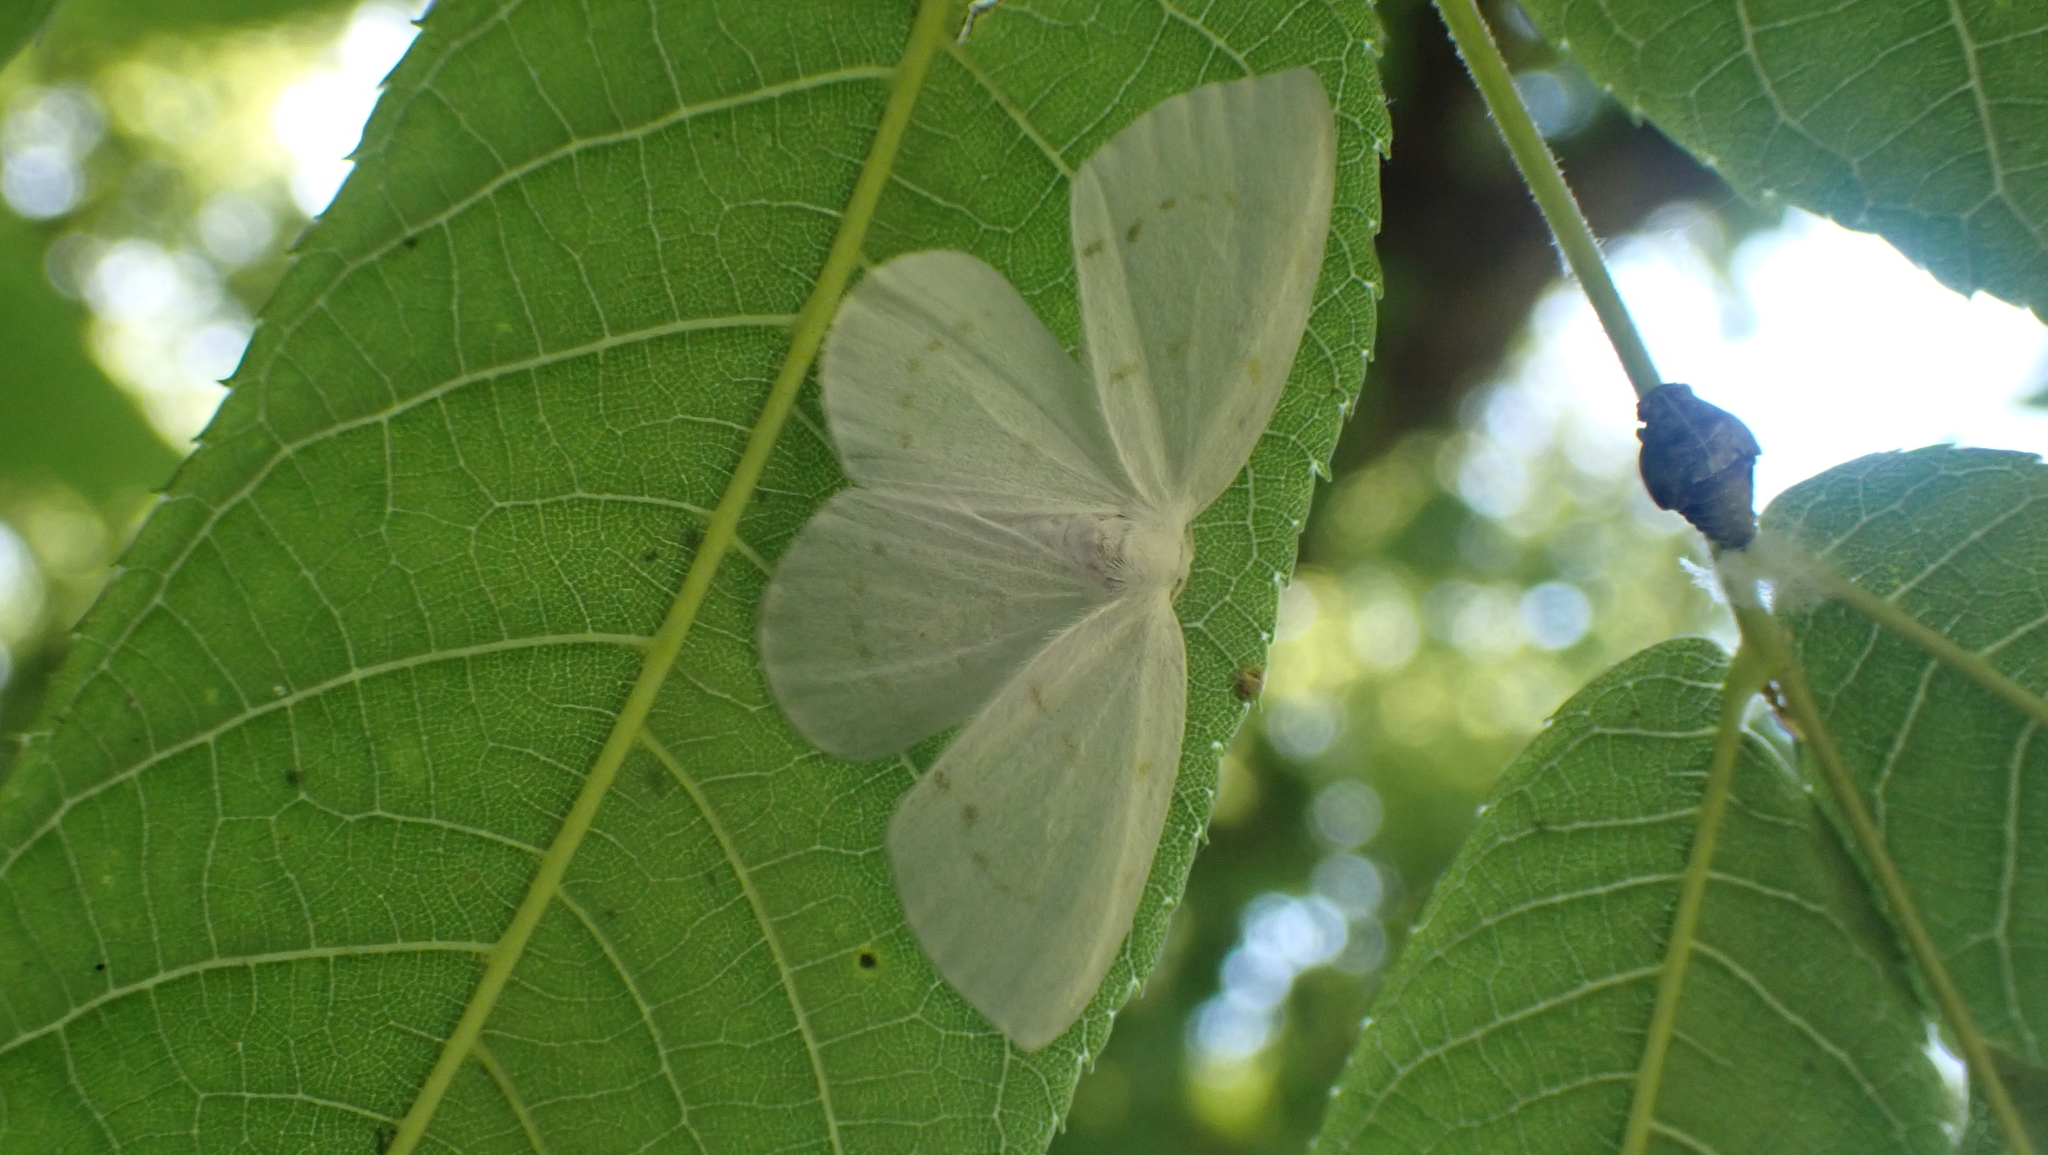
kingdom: Animalia
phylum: Arthropoda
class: Insecta
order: Lepidoptera
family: Drepanidae
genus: Eudeilinia
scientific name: Eudeilinia herminiata
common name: Northern eudeilinea moth
